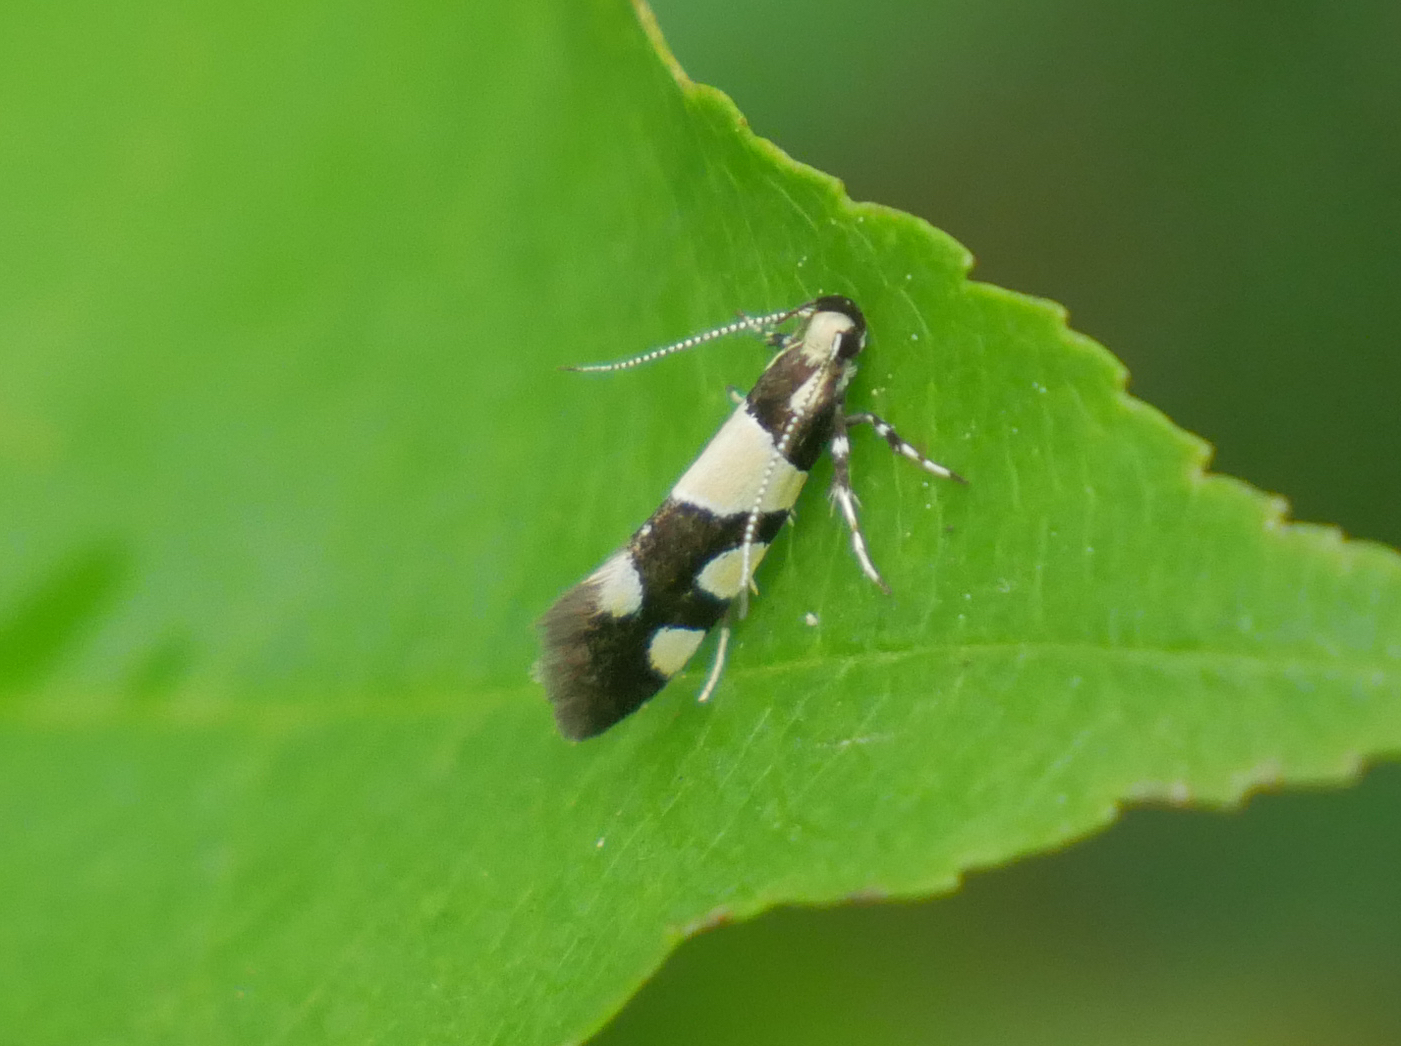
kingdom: Animalia
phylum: Arthropoda
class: Insecta
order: Lepidoptera
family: Oecophoridae
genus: Schiffermuelleria
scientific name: Schiffermuelleria amasiella
